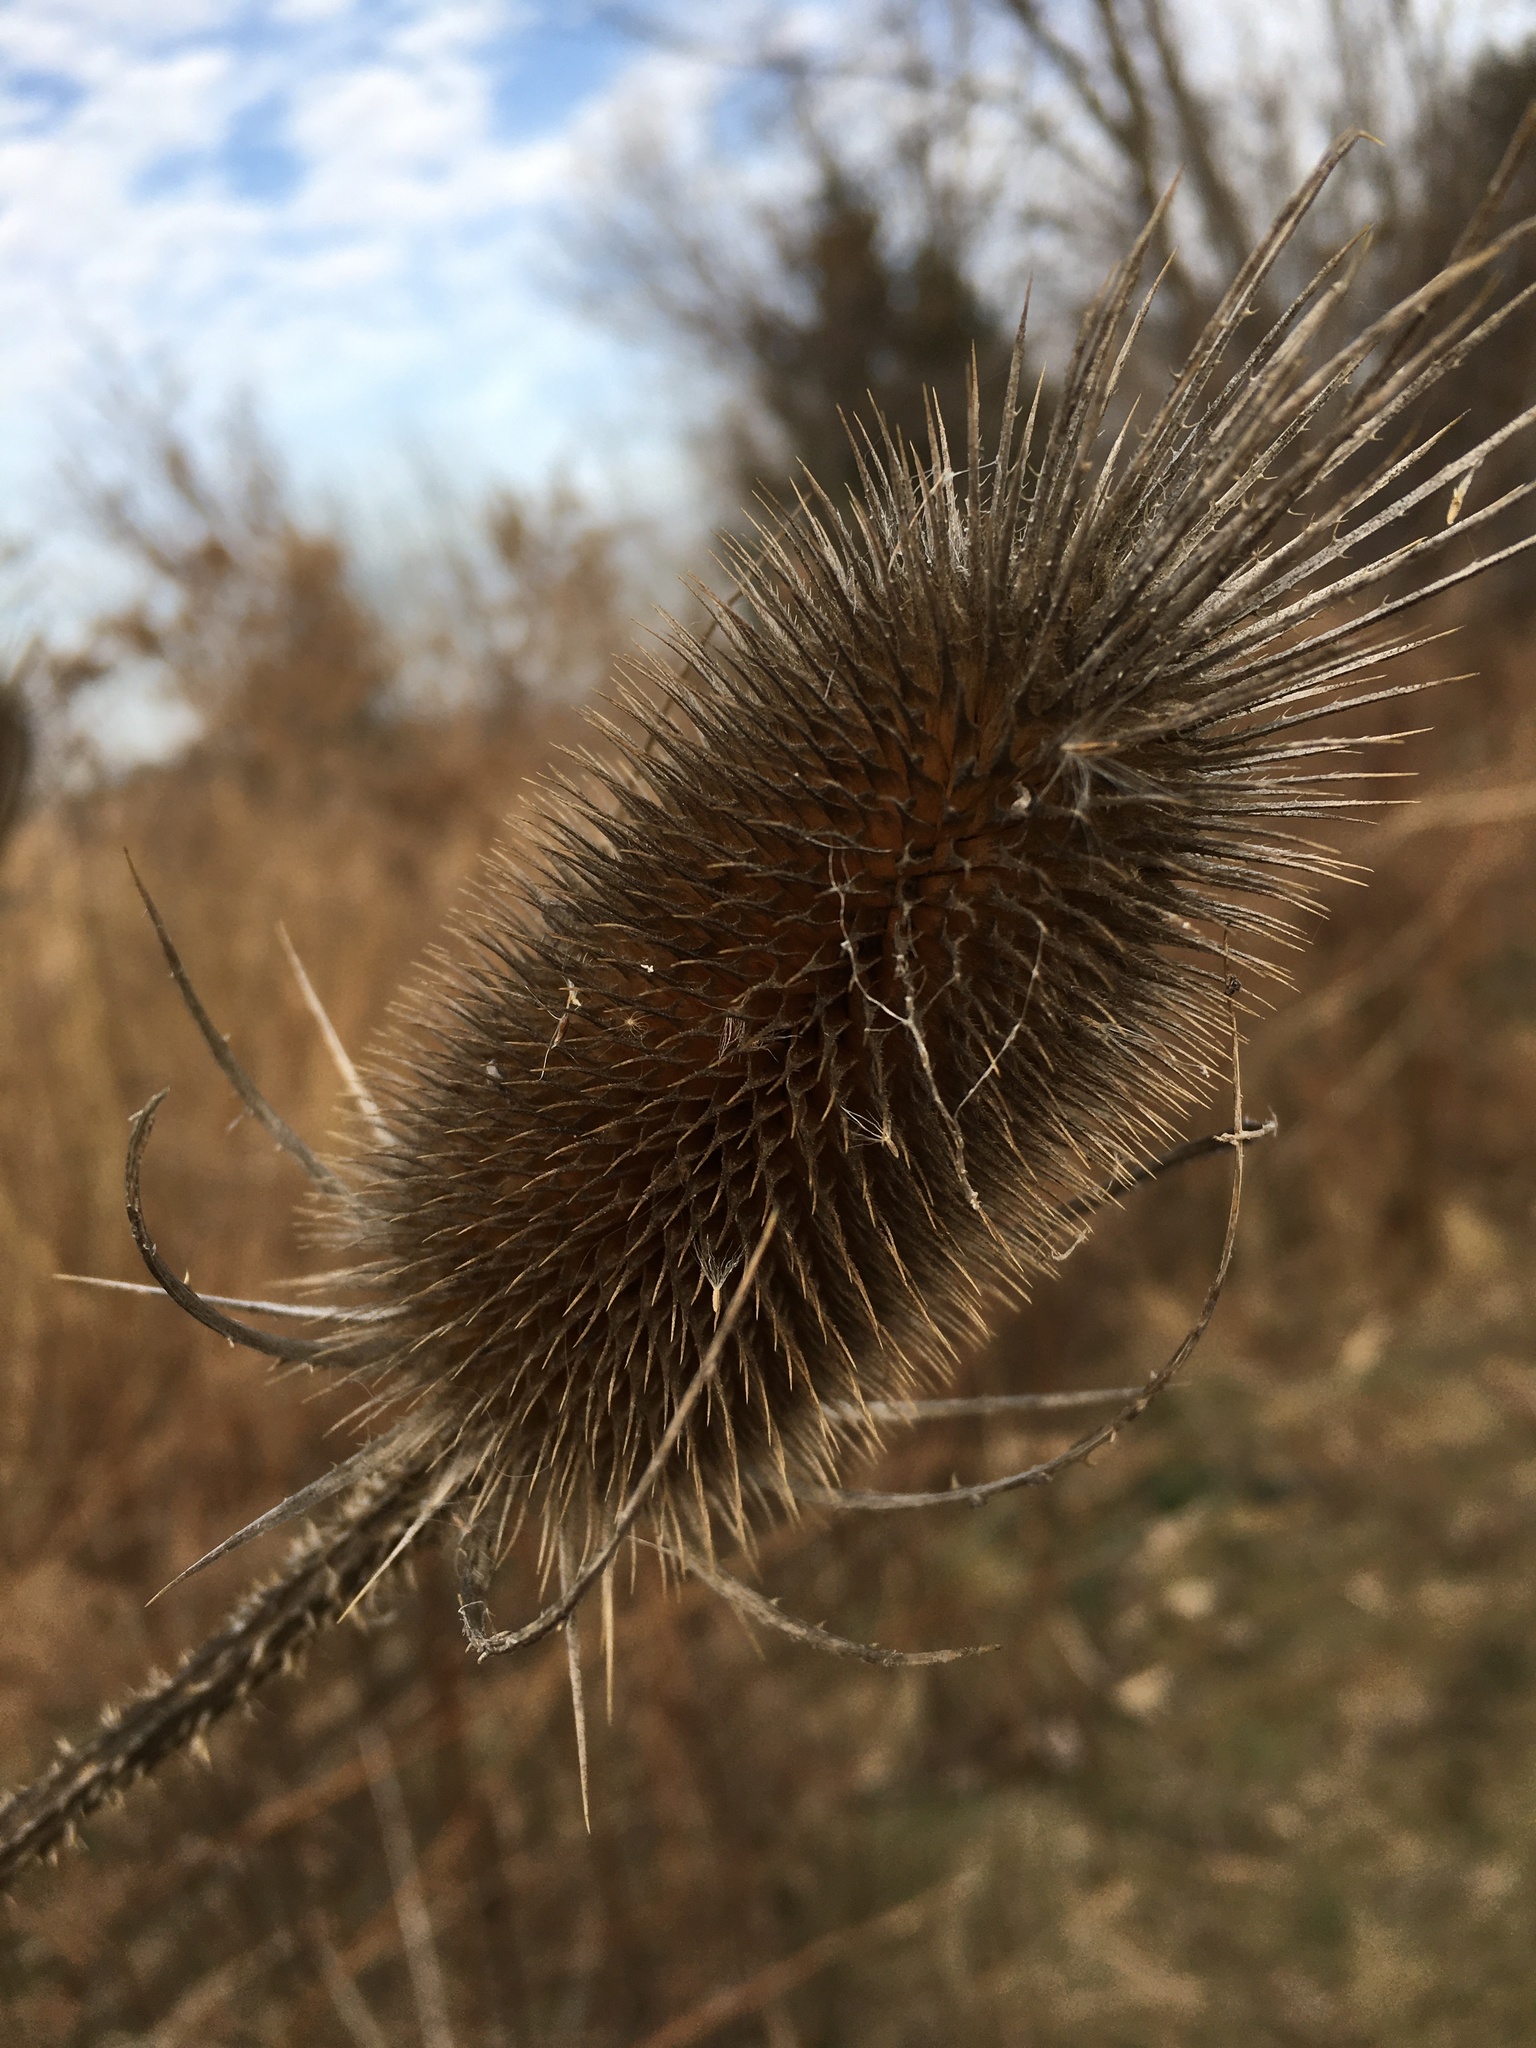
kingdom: Plantae
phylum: Tracheophyta
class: Magnoliopsida
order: Dipsacales
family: Caprifoliaceae
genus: Dipsacus
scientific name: Dipsacus fullonum
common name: Teasel
